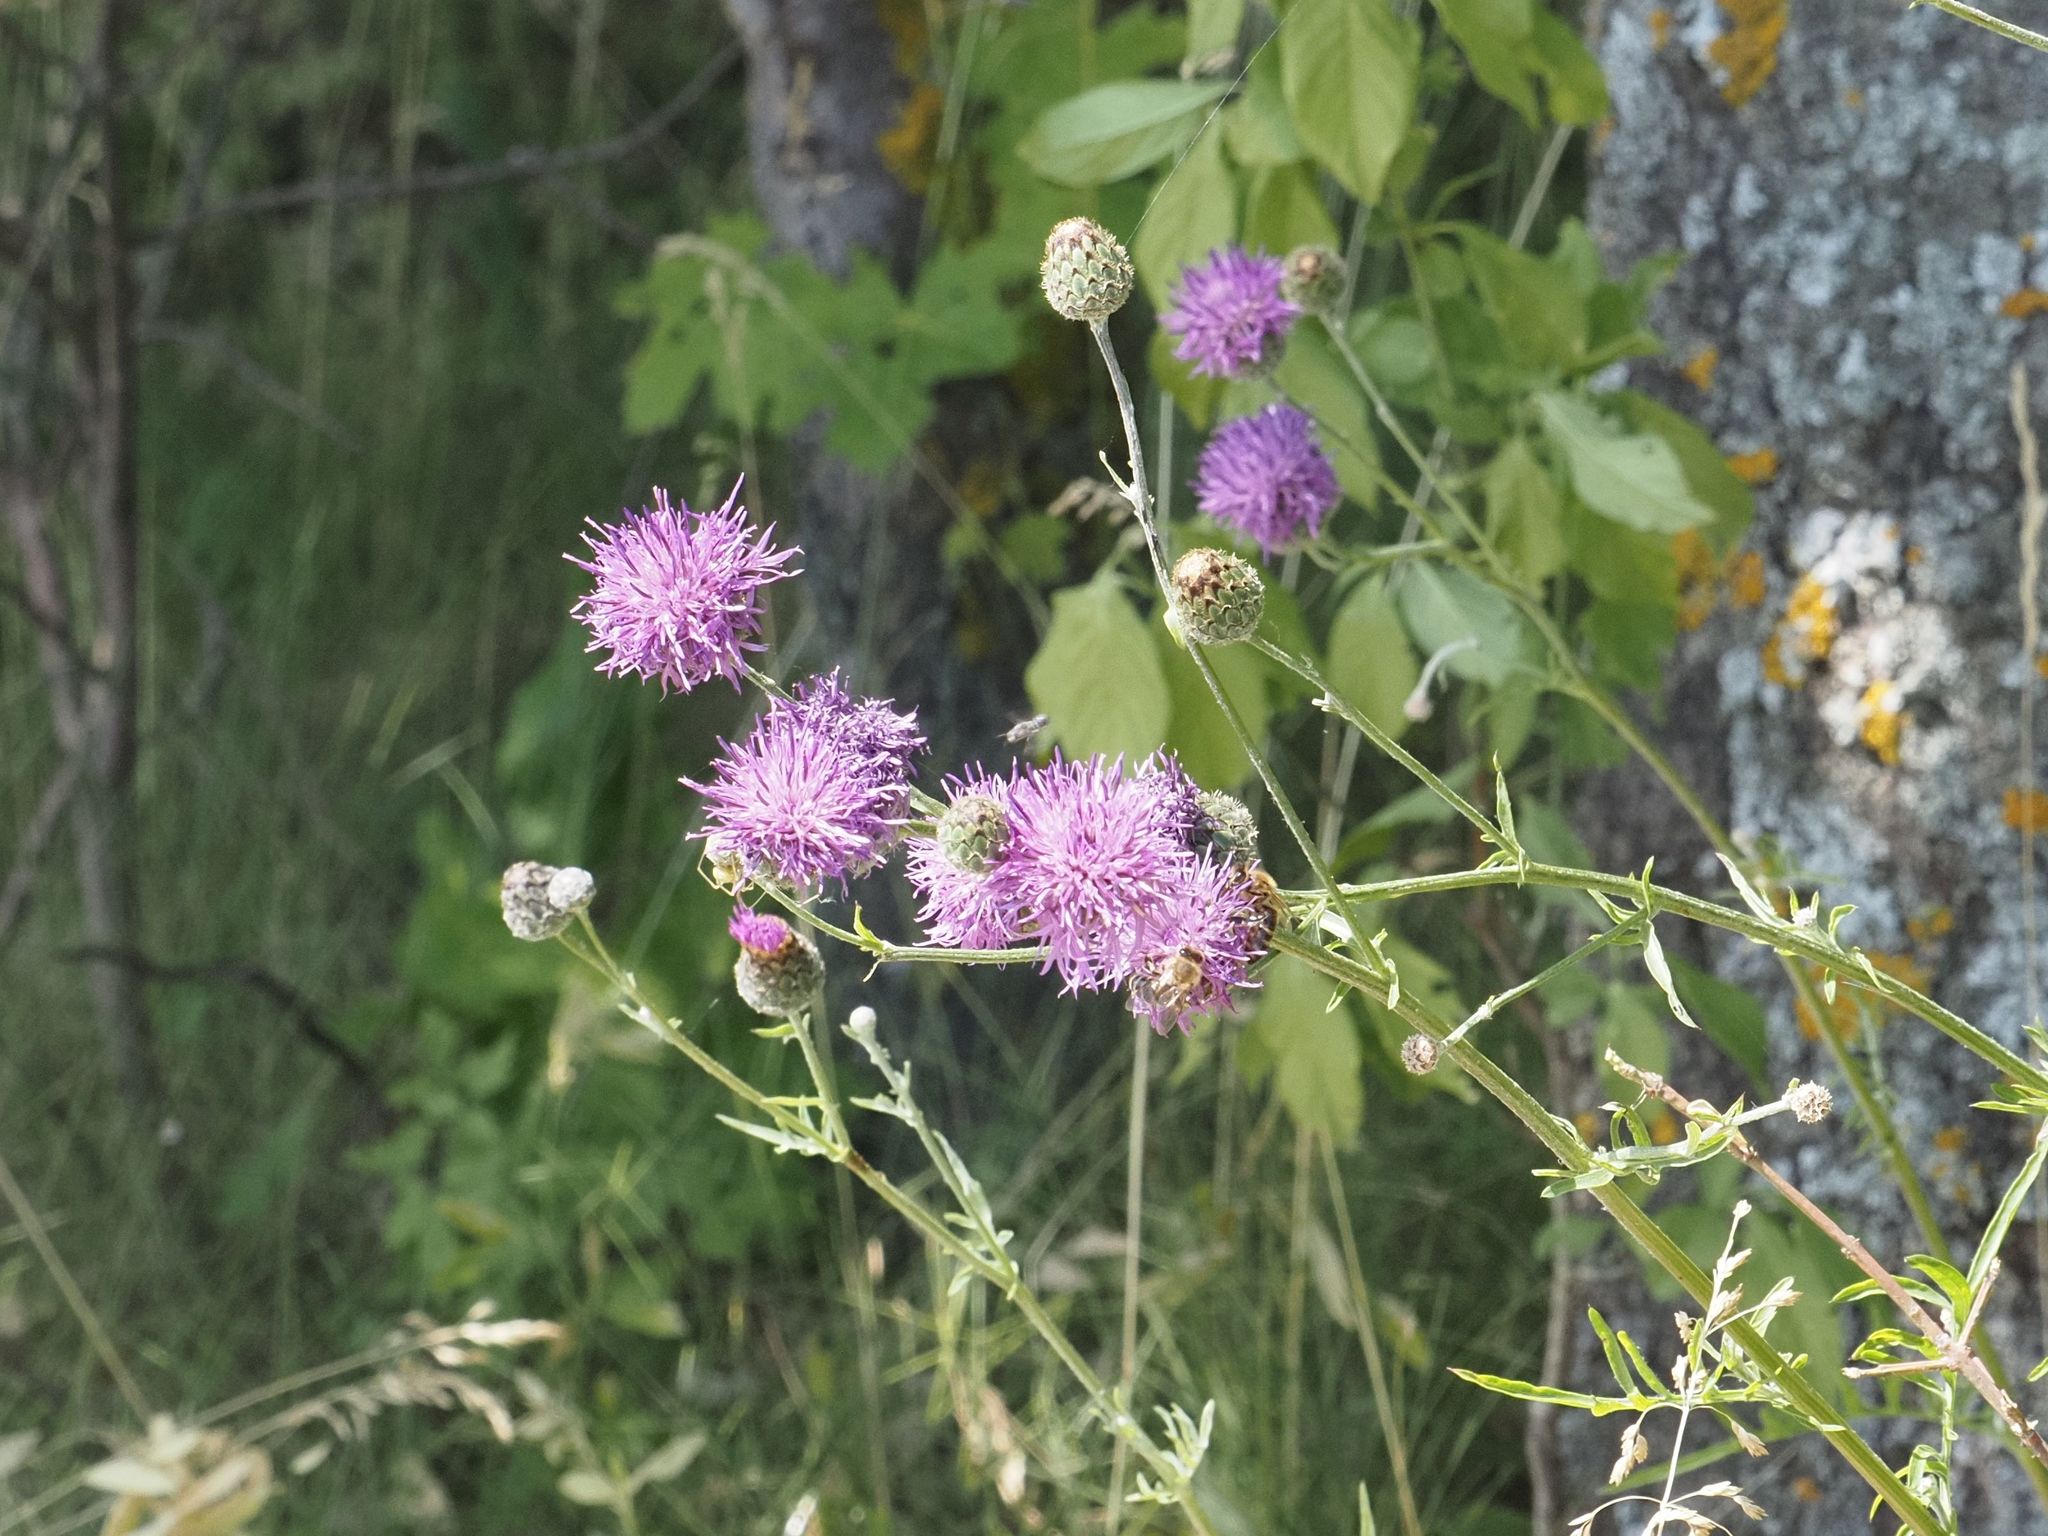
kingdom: Plantae
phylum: Tracheophyta
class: Magnoliopsida
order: Asterales
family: Asteraceae
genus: Centaurea
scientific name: Centaurea stoebe
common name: Spotted knapweed
